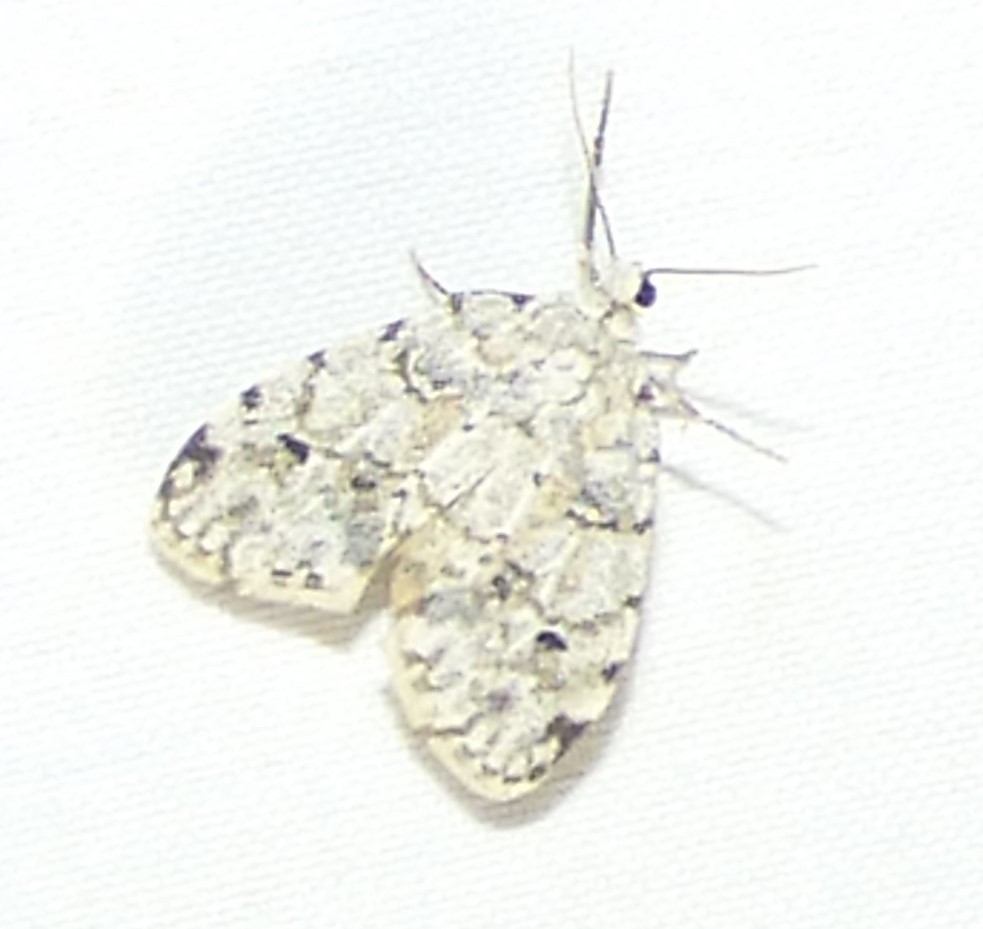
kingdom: Animalia
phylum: Arthropoda
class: Insecta
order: Lepidoptera
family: Erebidae
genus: Clemensia
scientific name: Clemensia albata
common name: Little white lichen moth
